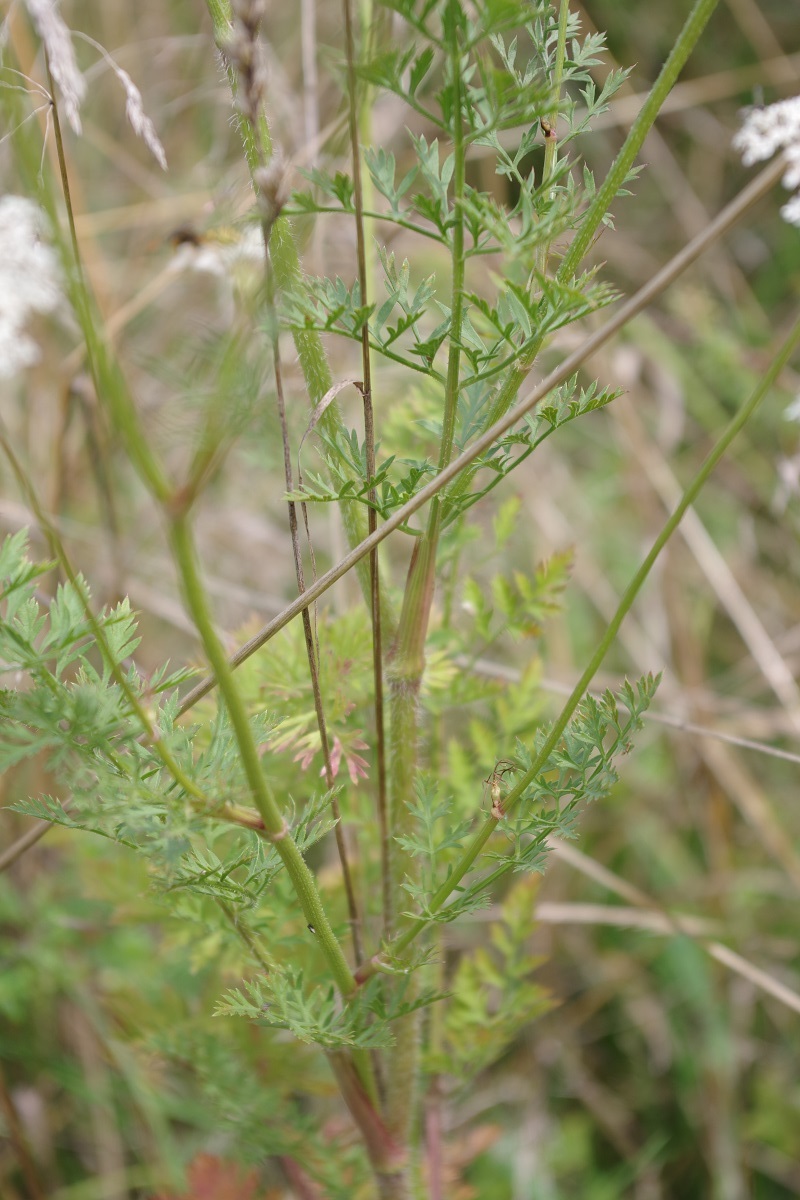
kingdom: Plantae
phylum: Tracheophyta
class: Magnoliopsida
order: Apiales
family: Apiaceae
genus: Daucus
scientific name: Daucus carota
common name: Wild carrot
